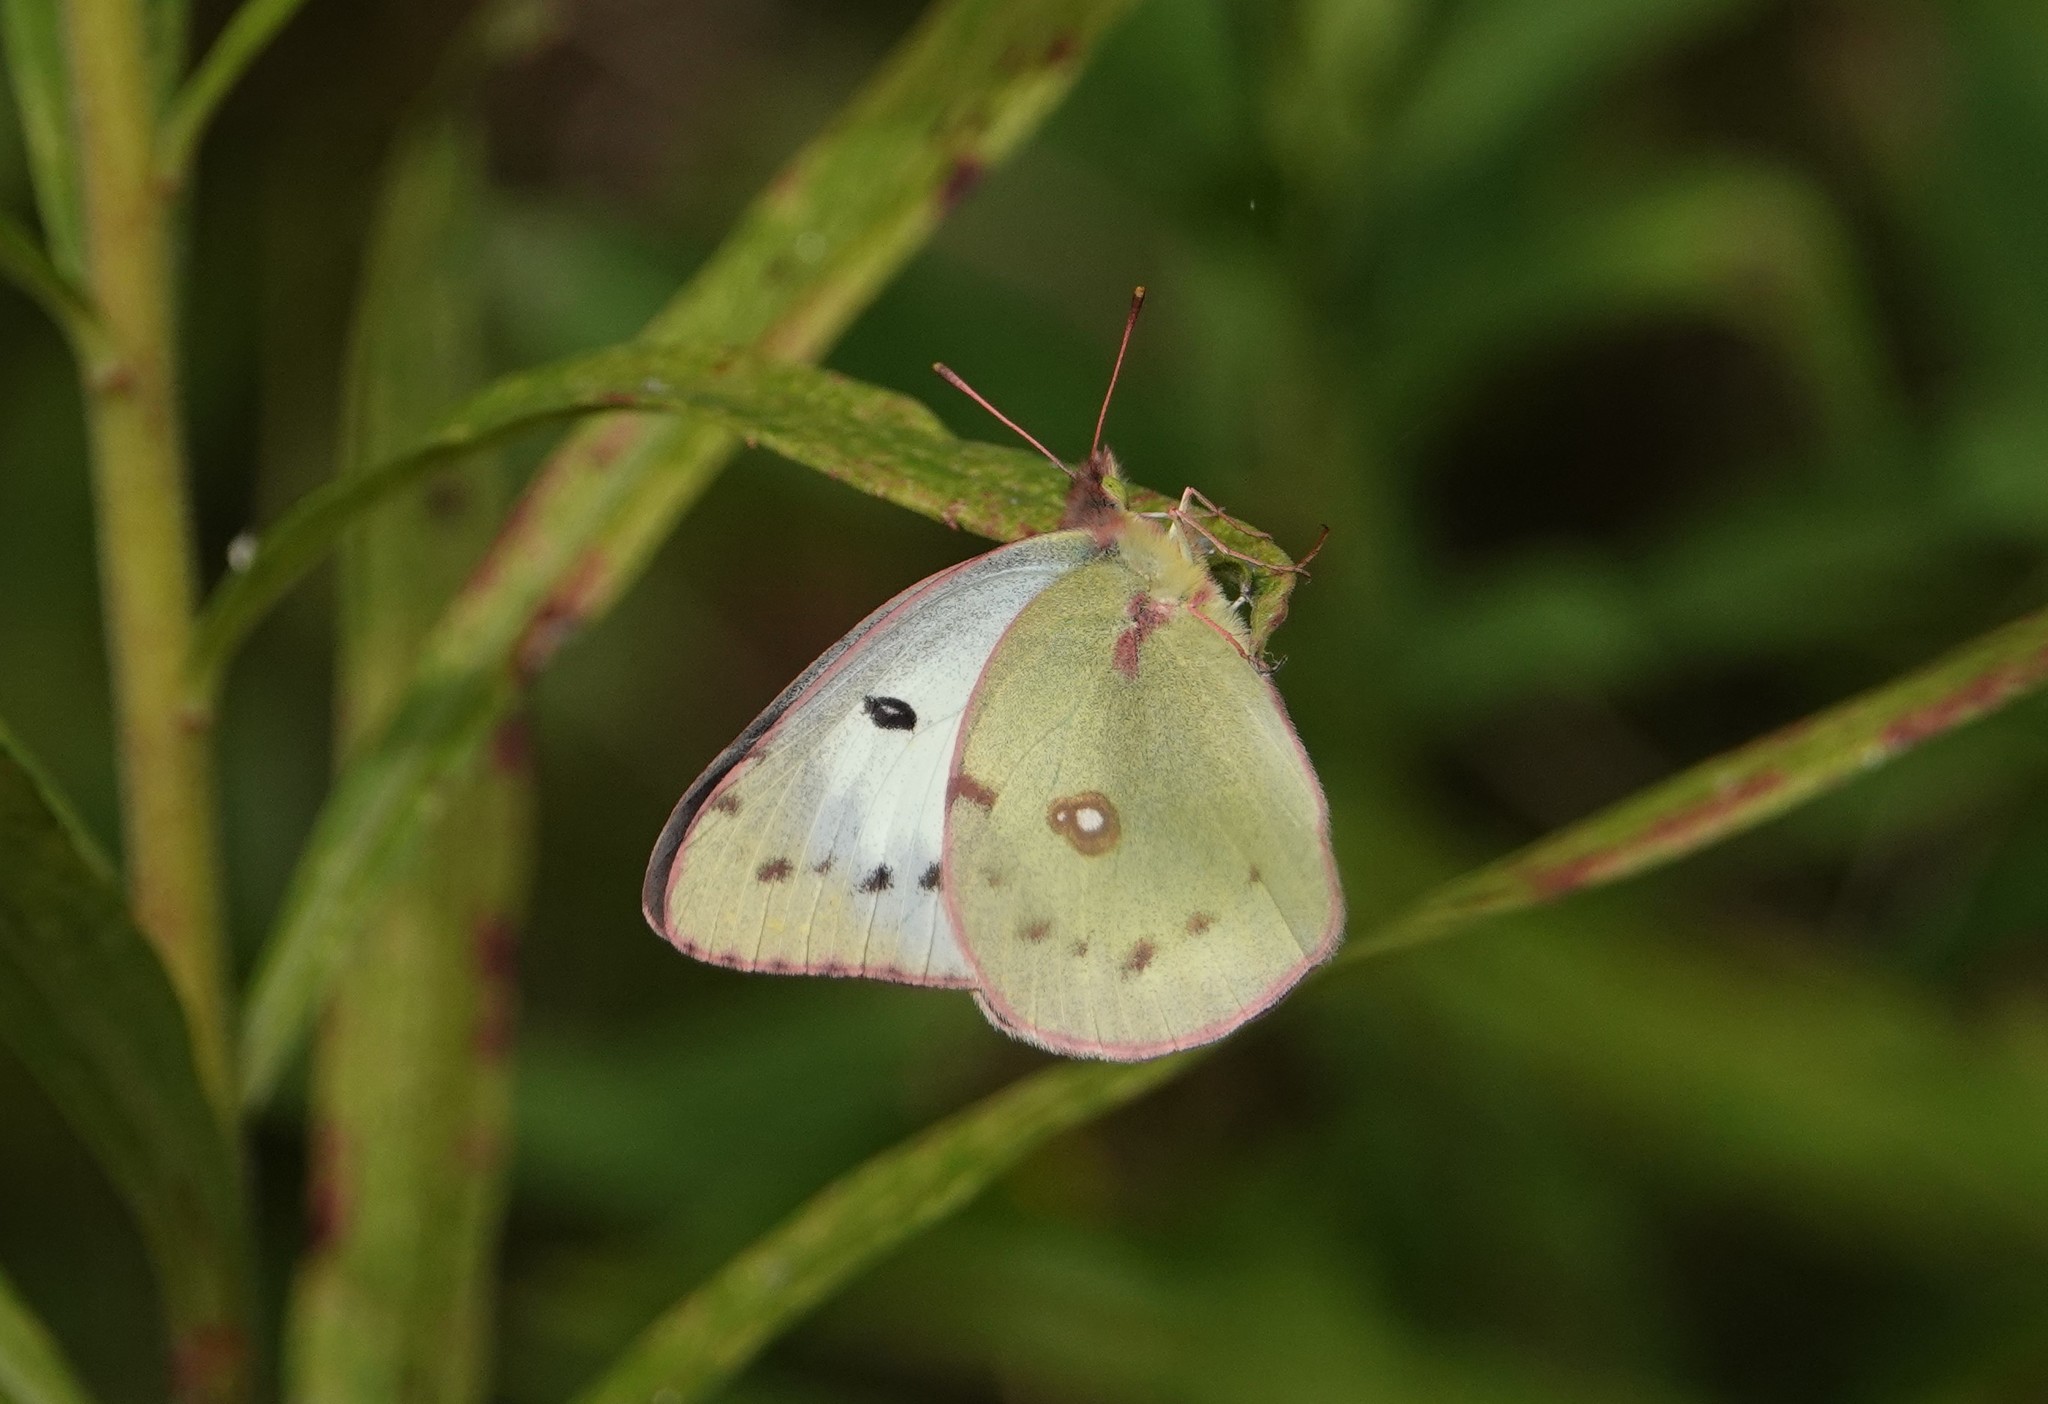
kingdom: Animalia
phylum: Arthropoda
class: Insecta
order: Lepidoptera
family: Pieridae
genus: Colias
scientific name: Colias philodice
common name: Clouded sulphur
